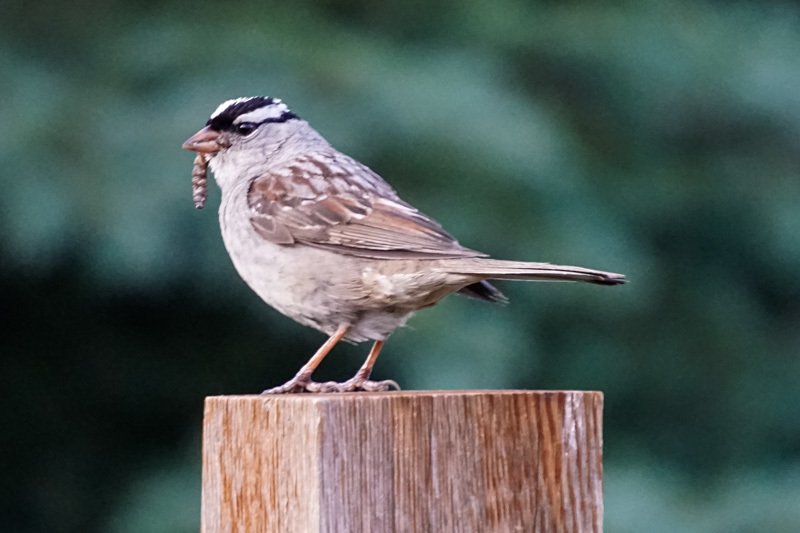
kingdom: Animalia
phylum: Chordata
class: Aves
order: Passeriformes
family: Passerellidae
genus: Zonotrichia
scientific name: Zonotrichia leucophrys
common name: White-crowned sparrow
